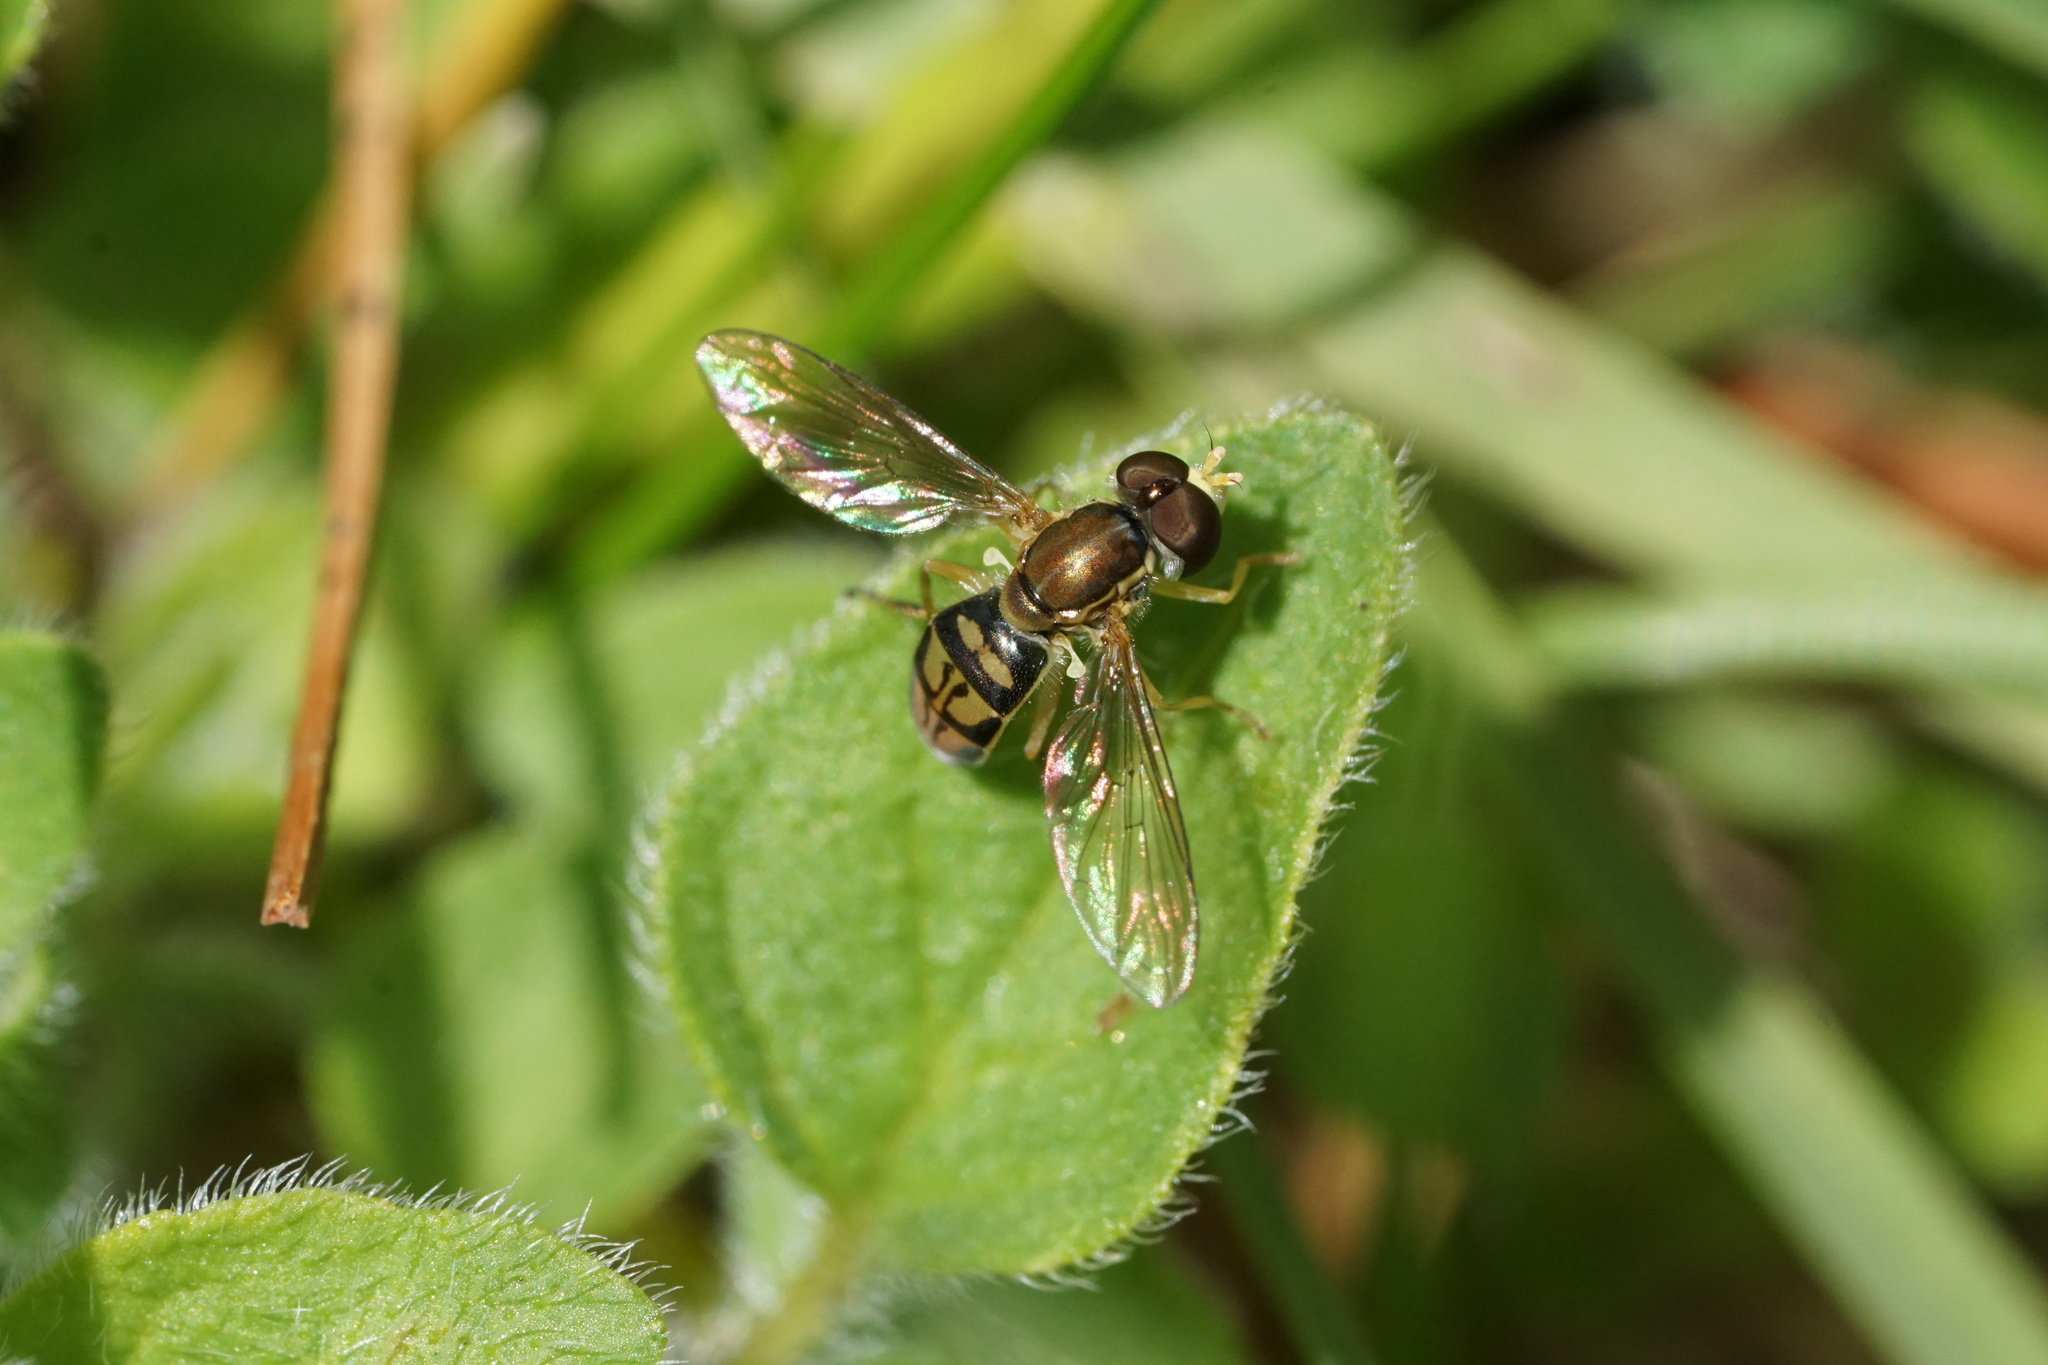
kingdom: Animalia
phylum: Arthropoda
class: Insecta
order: Diptera
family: Syrphidae
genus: Toxomerus
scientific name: Toxomerus marginatus
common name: Syrphid fly
